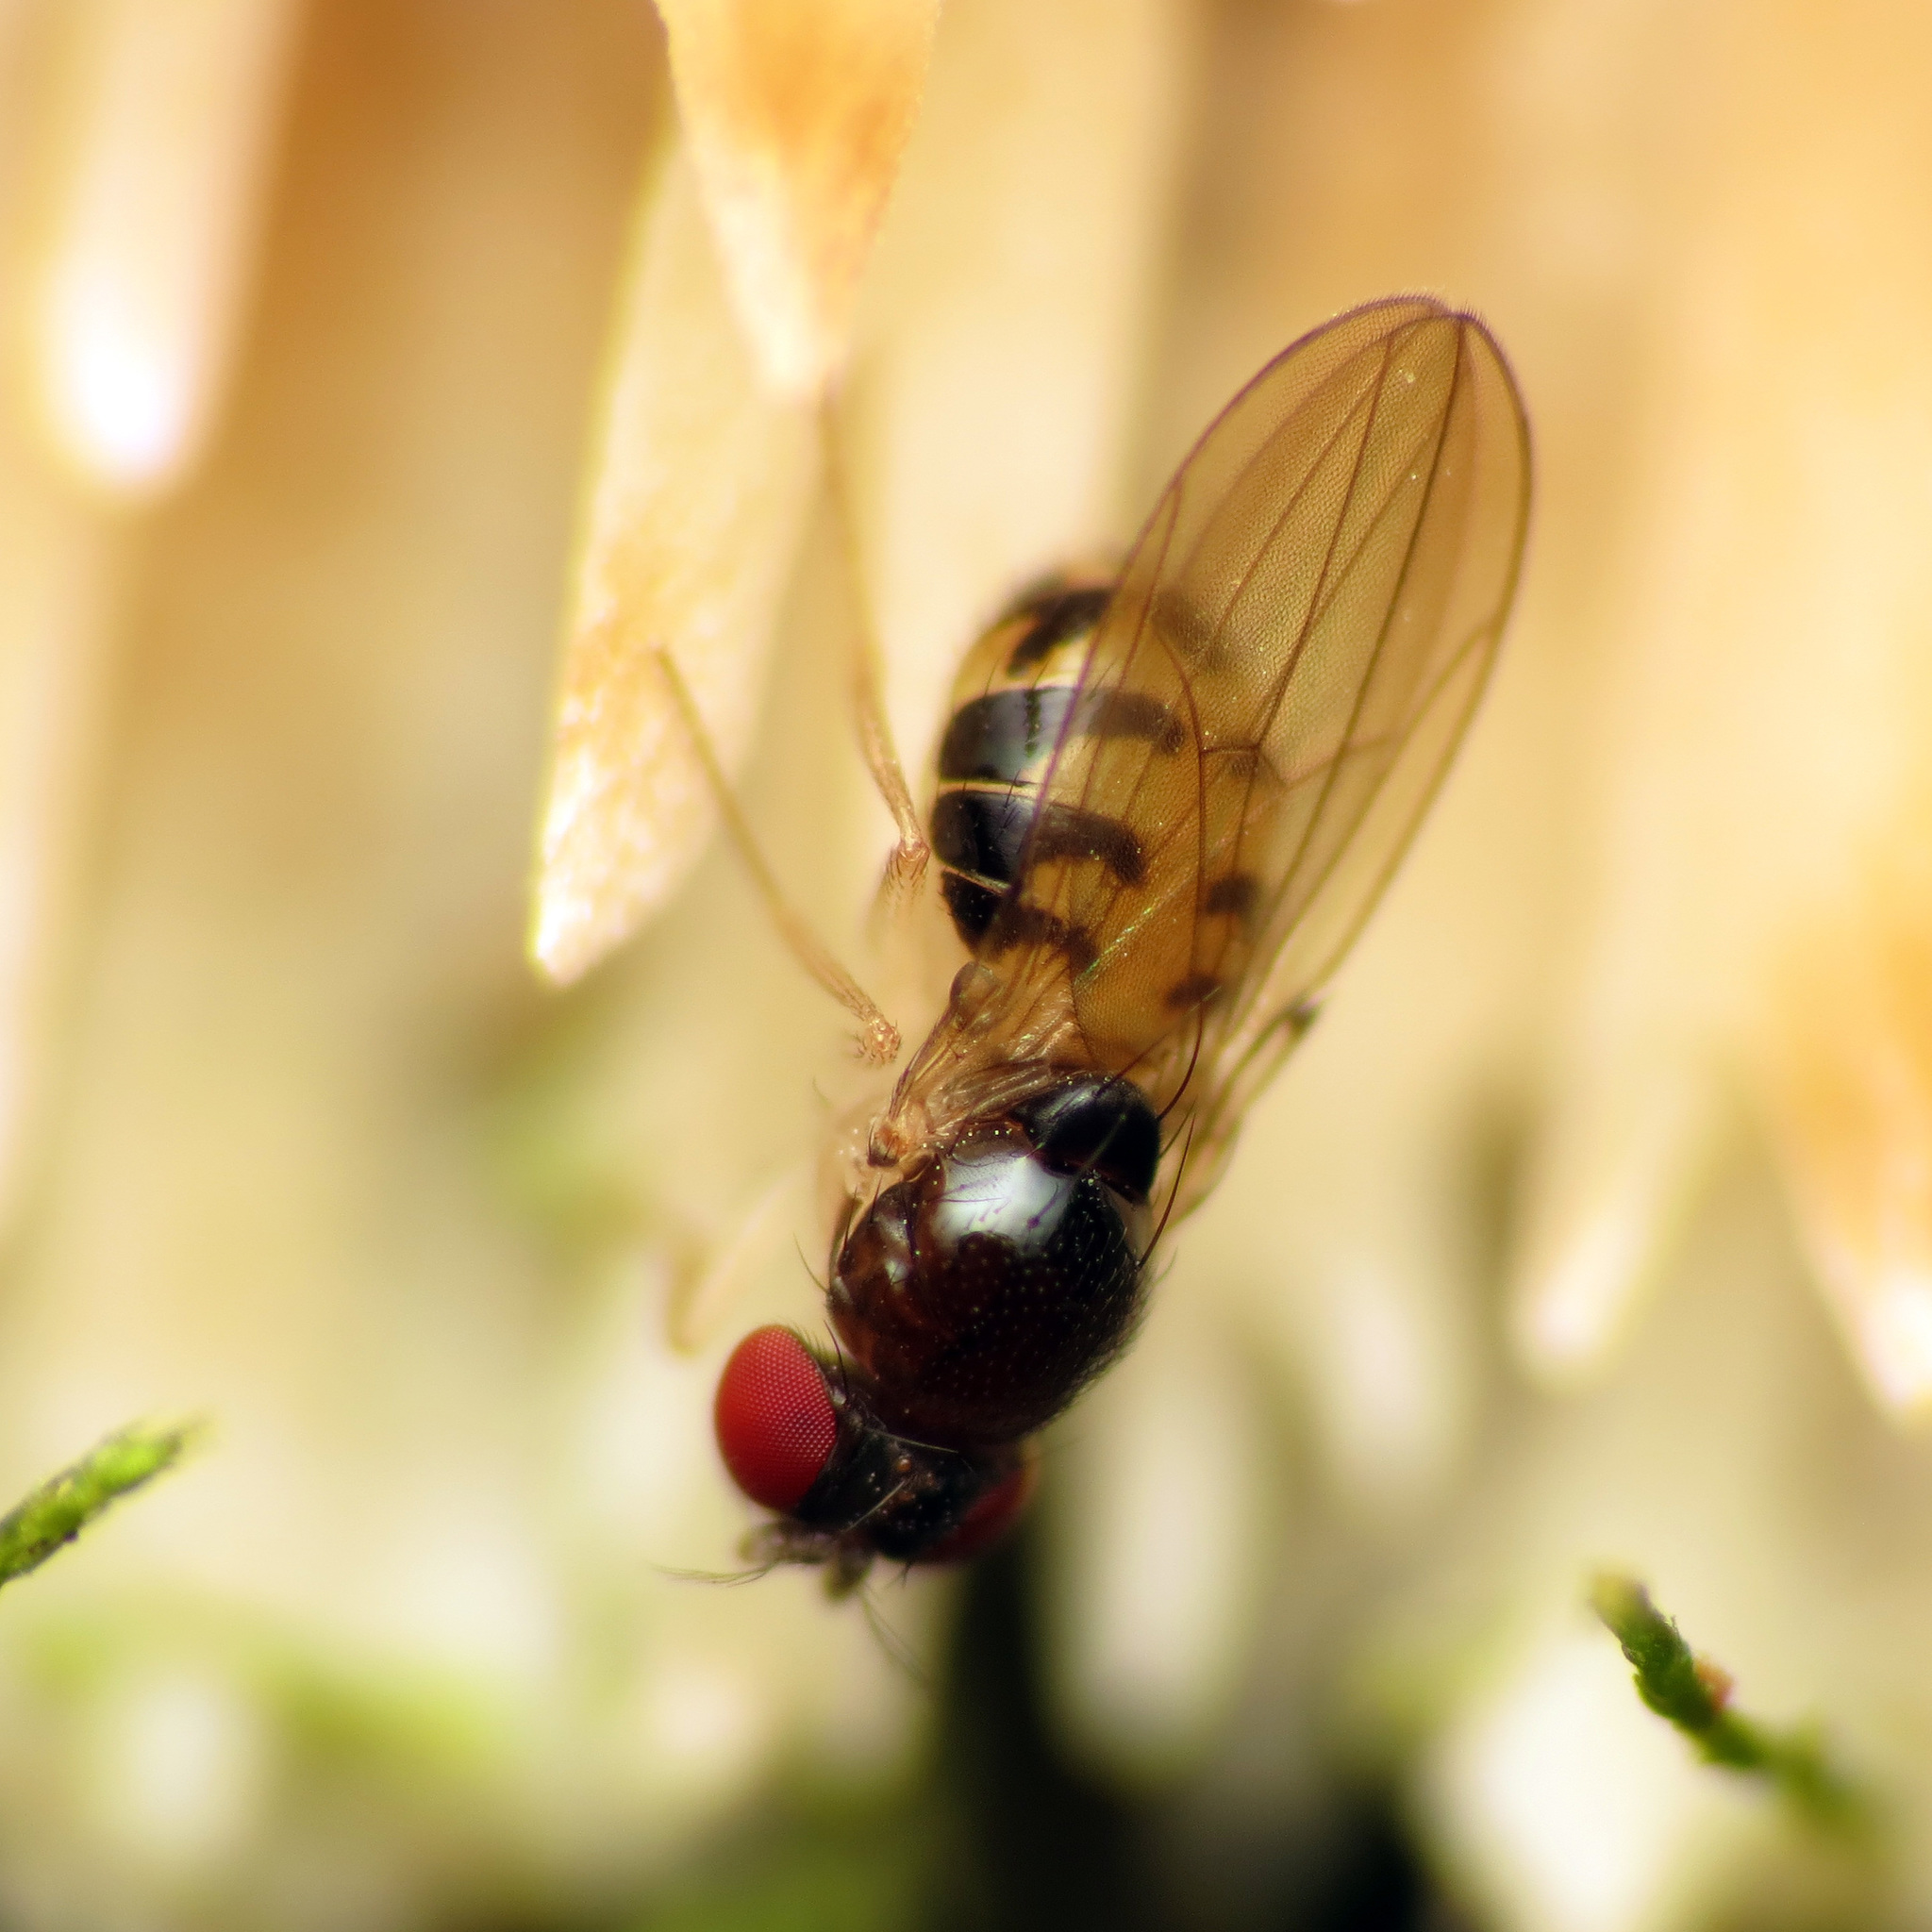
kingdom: Animalia
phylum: Arthropoda
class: Insecta
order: Diptera
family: Drosophilidae
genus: Mycodrosophila
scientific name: Mycodrosophila dimidiata
